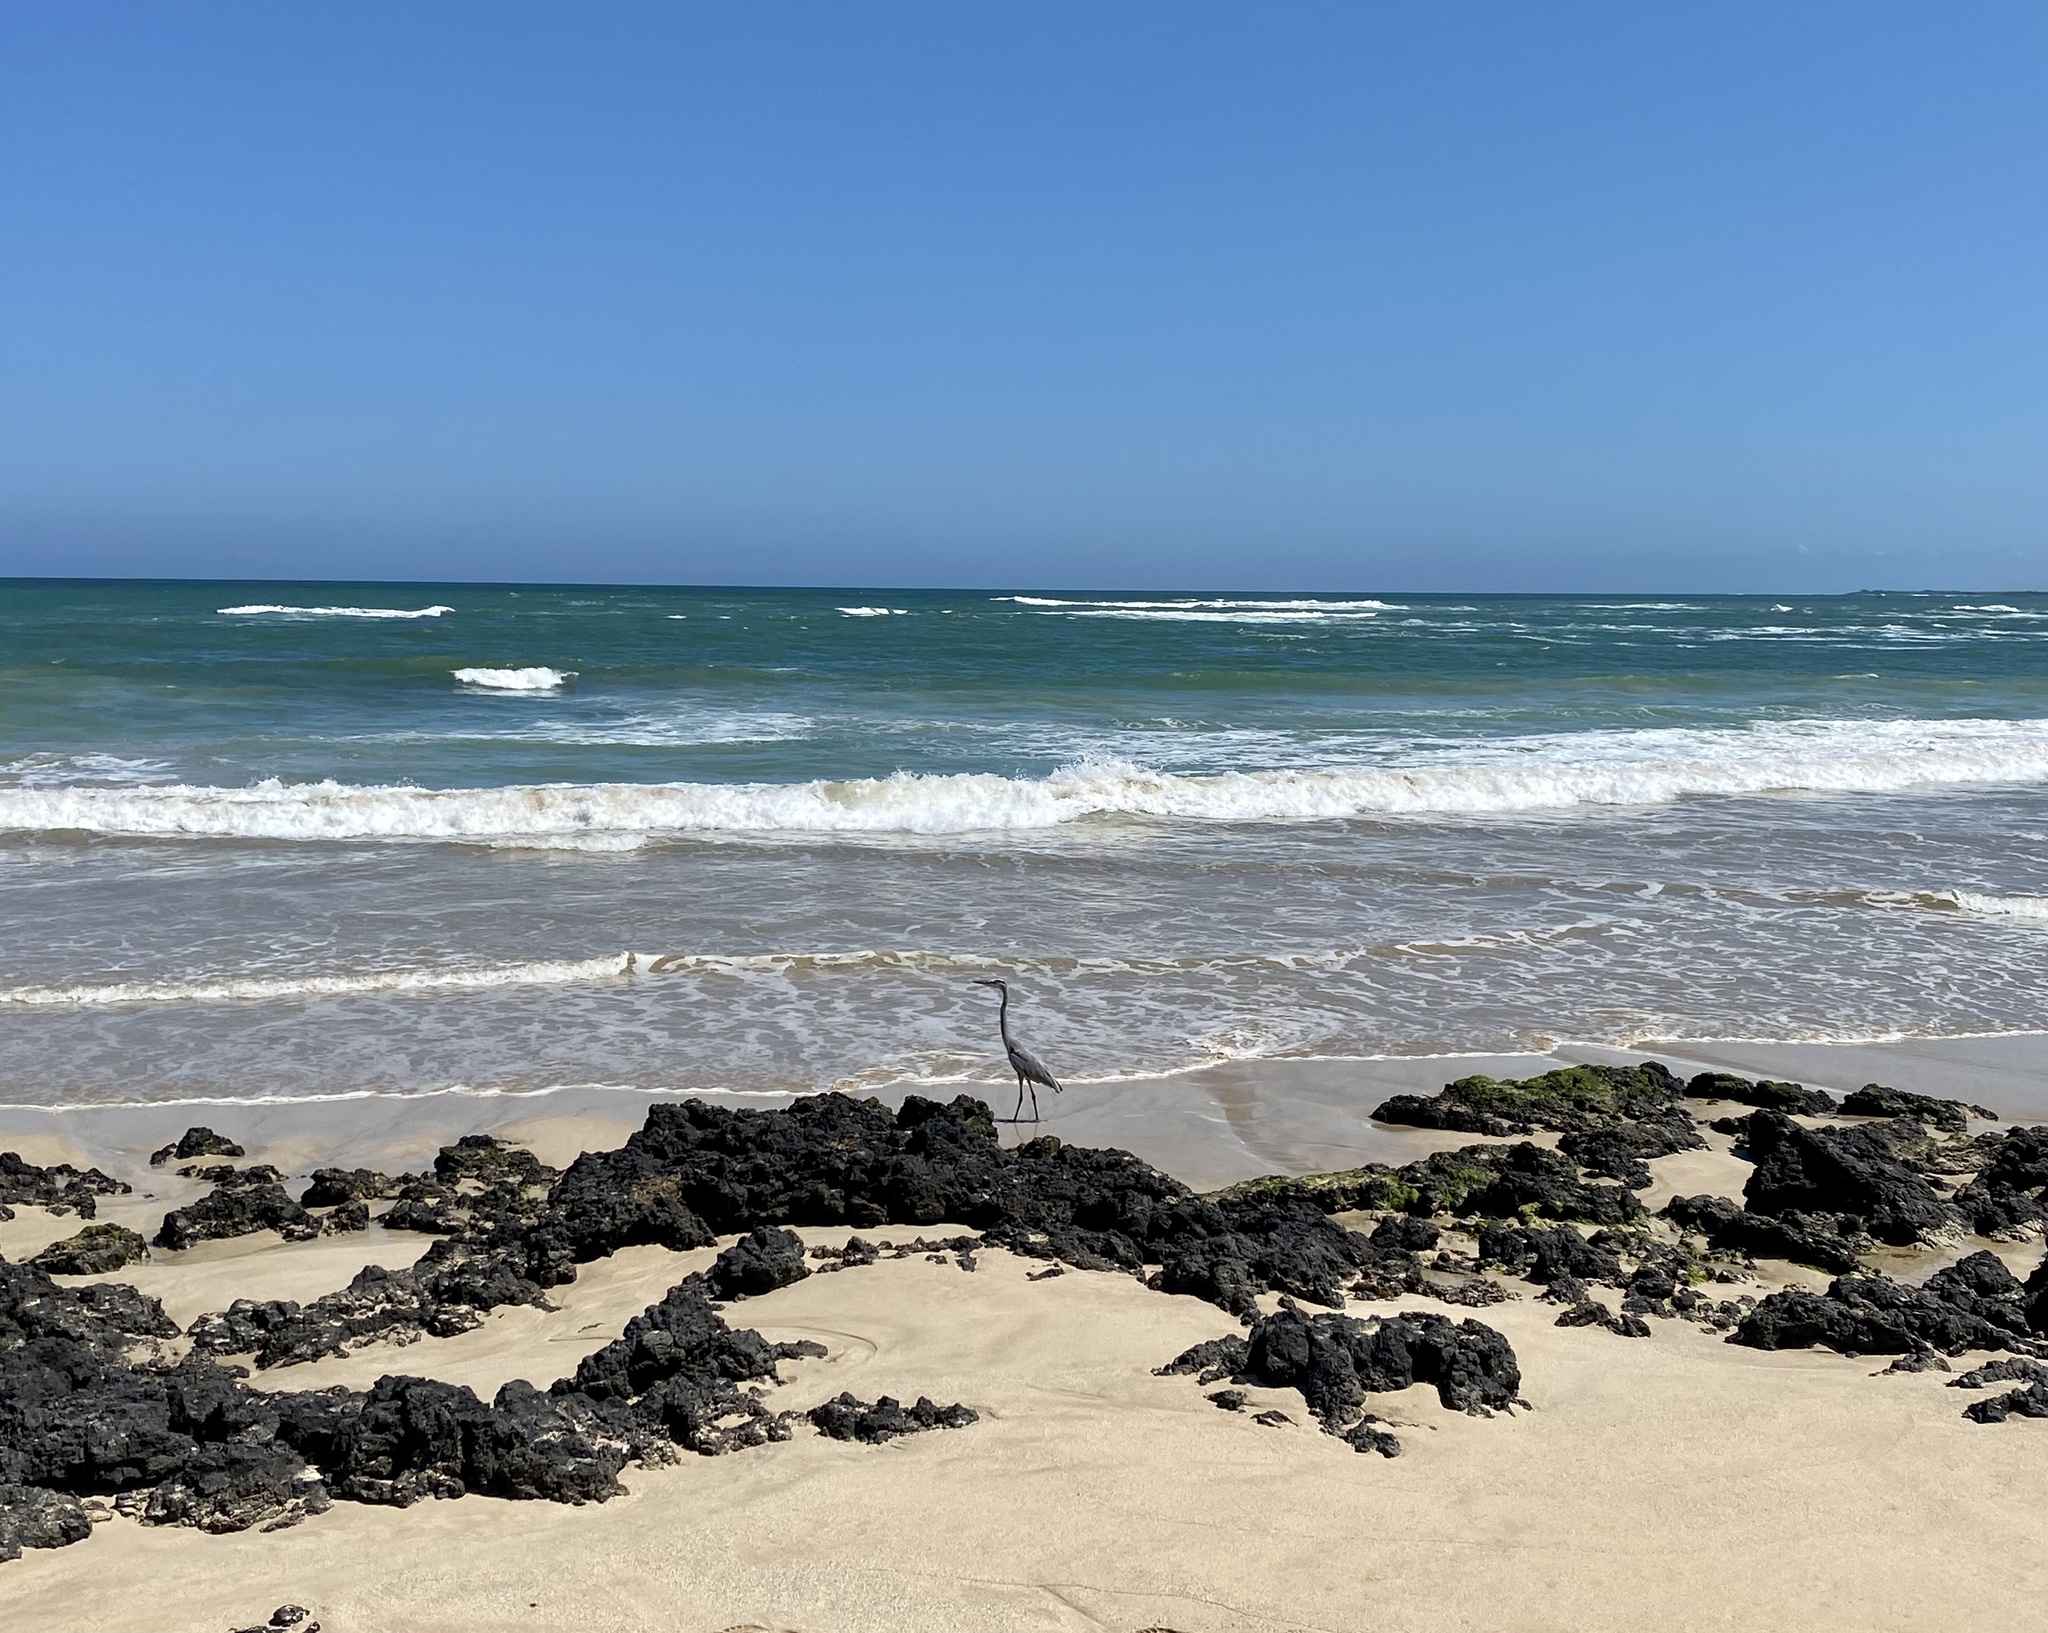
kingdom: Animalia
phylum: Chordata
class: Aves
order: Pelecaniformes
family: Ardeidae
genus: Ardea
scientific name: Ardea herodias
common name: Great blue heron
